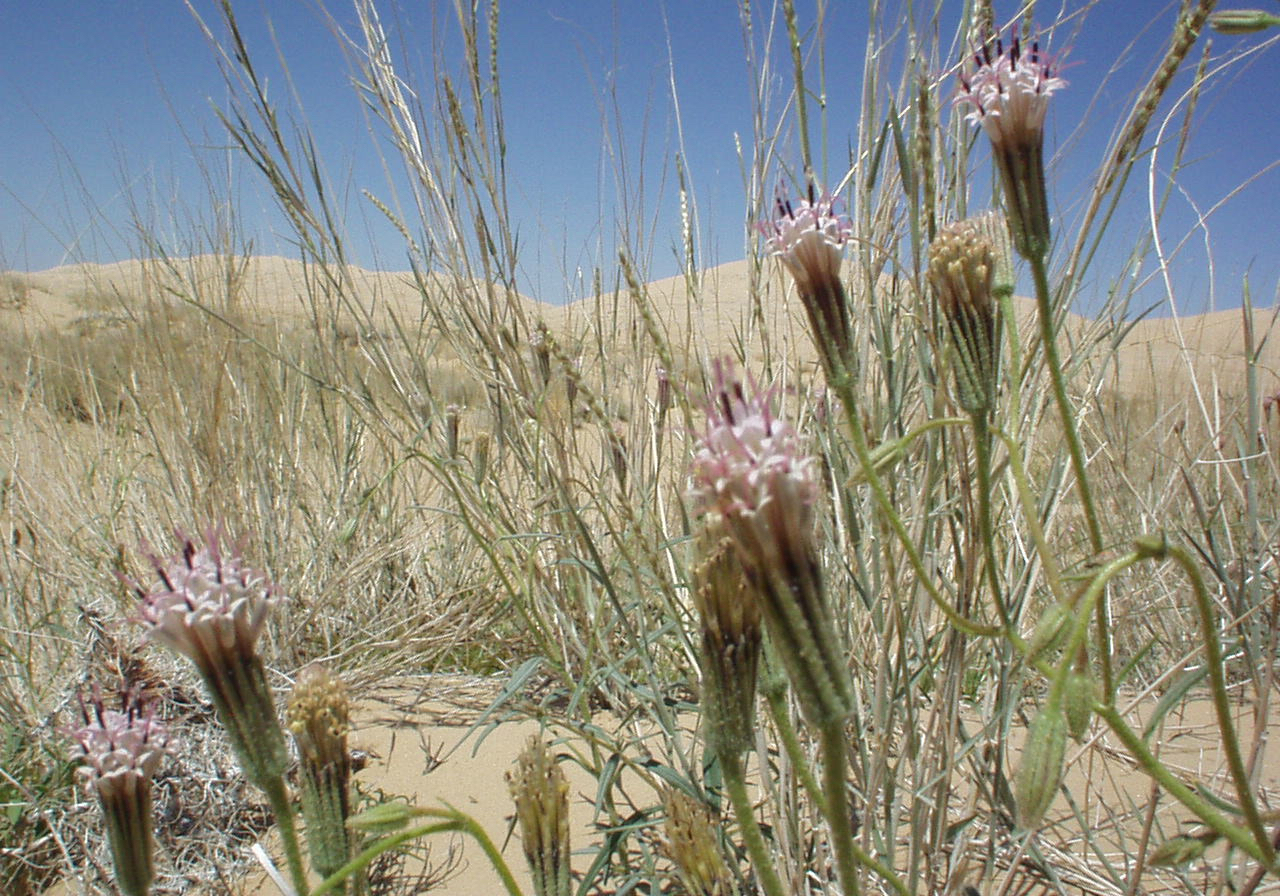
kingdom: Plantae
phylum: Tracheophyta
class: Magnoliopsida
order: Asterales
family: Asteraceae
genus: Palafoxia
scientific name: Palafoxia arida
